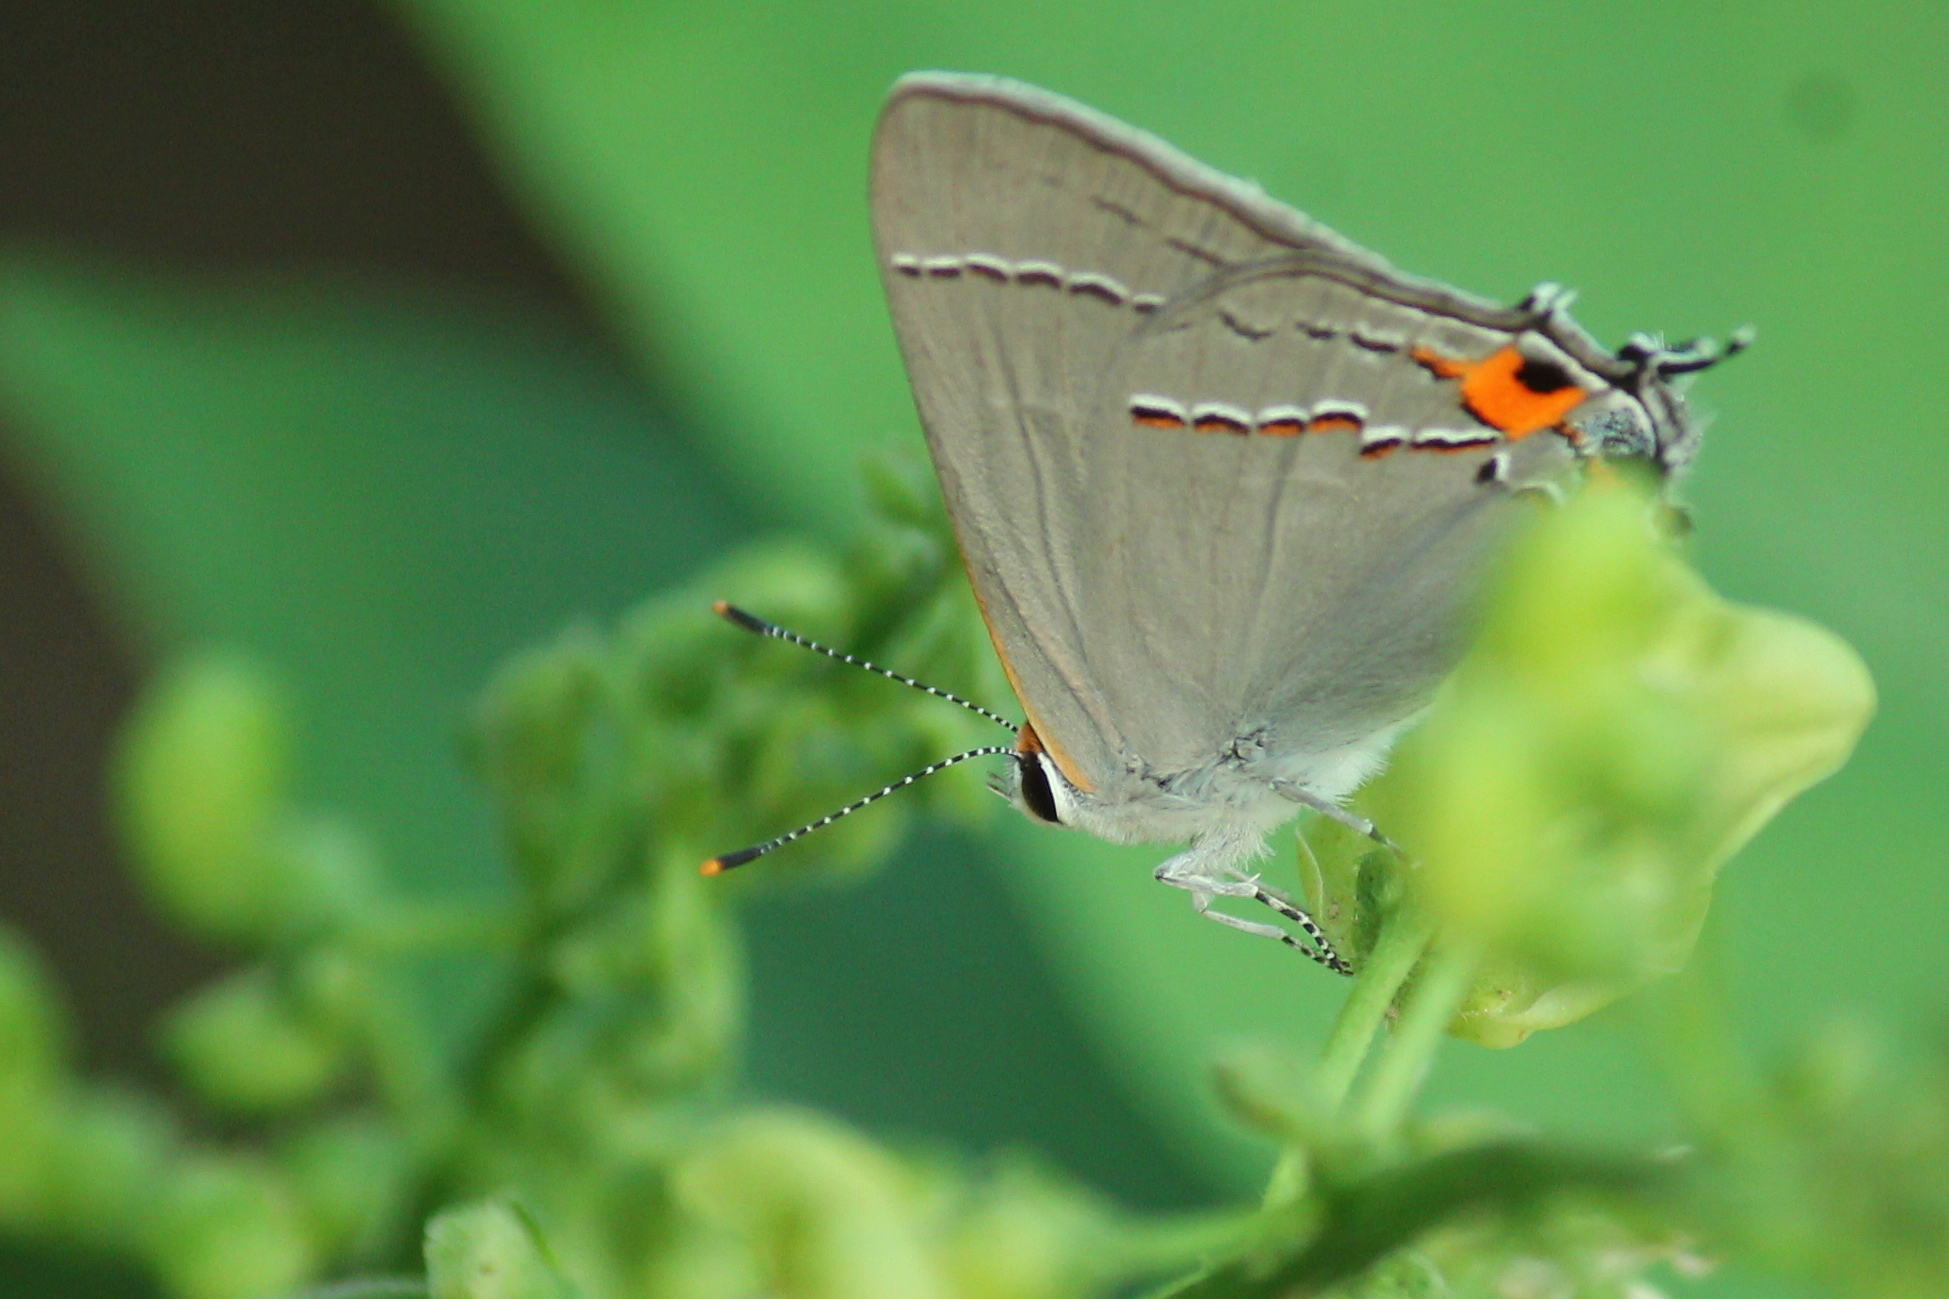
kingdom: Animalia
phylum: Arthropoda
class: Insecta
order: Lepidoptera
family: Lycaenidae
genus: Strymon
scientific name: Strymon melinus
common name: Gray hairstreak
